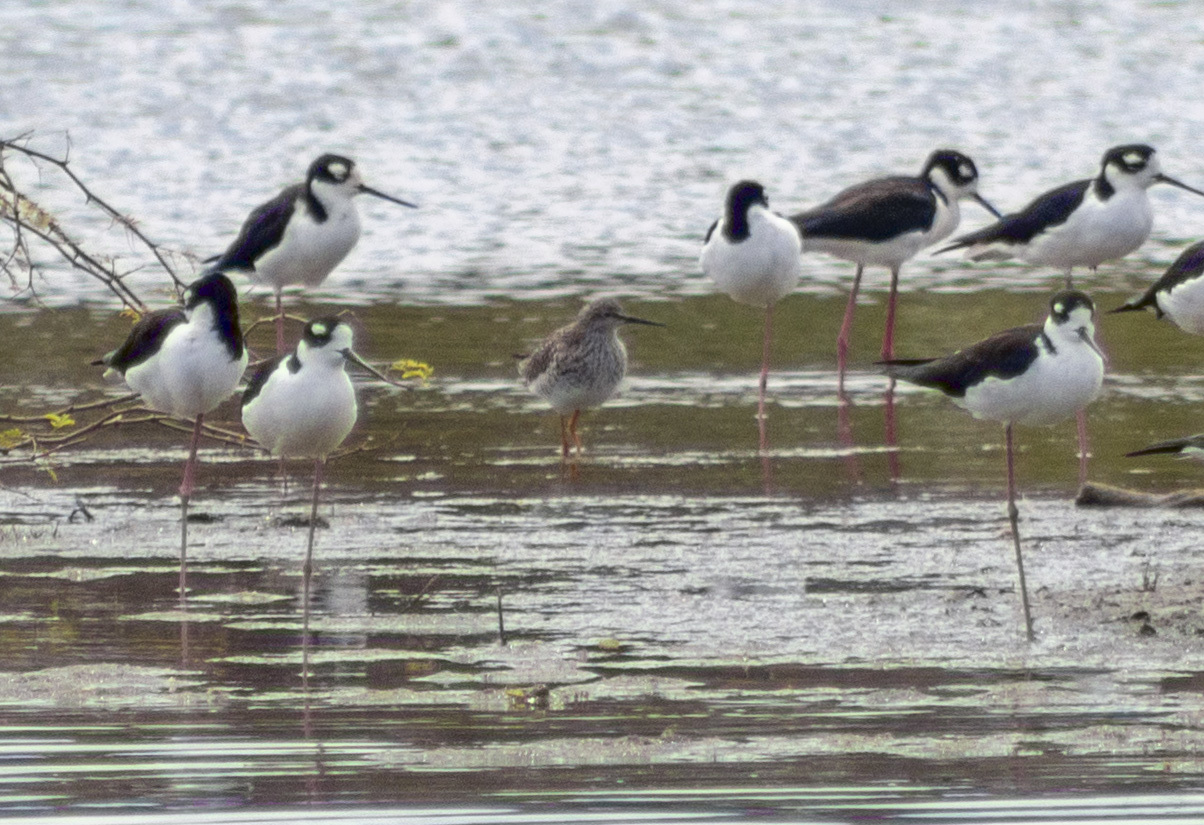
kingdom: Animalia
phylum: Chordata
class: Aves
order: Charadriiformes
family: Scolopacidae
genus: Tringa
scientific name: Tringa flavipes
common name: Lesser yellowlegs
